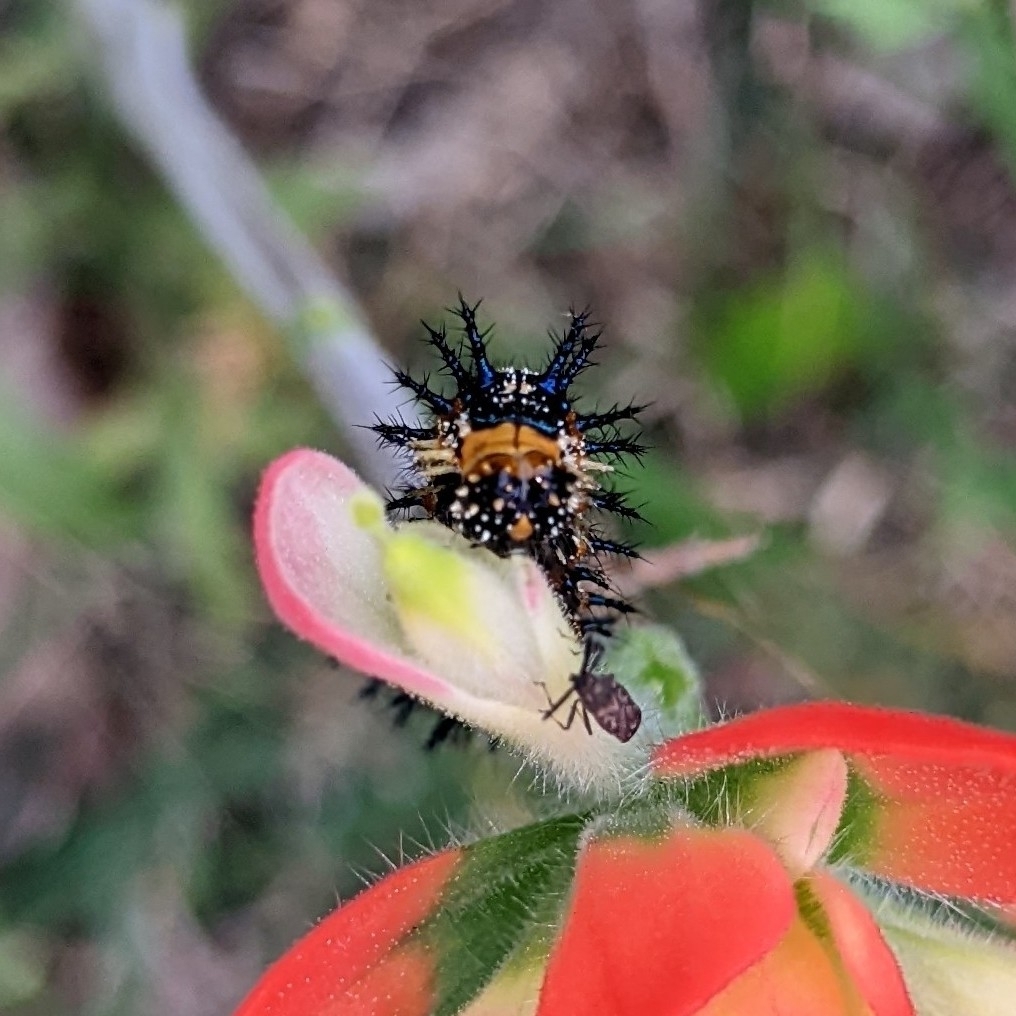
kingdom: Animalia
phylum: Arthropoda
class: Insecta
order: Lepidoptera
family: Nymphalidae
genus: Junonia
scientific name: Junonia coenia
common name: Common buckeye
